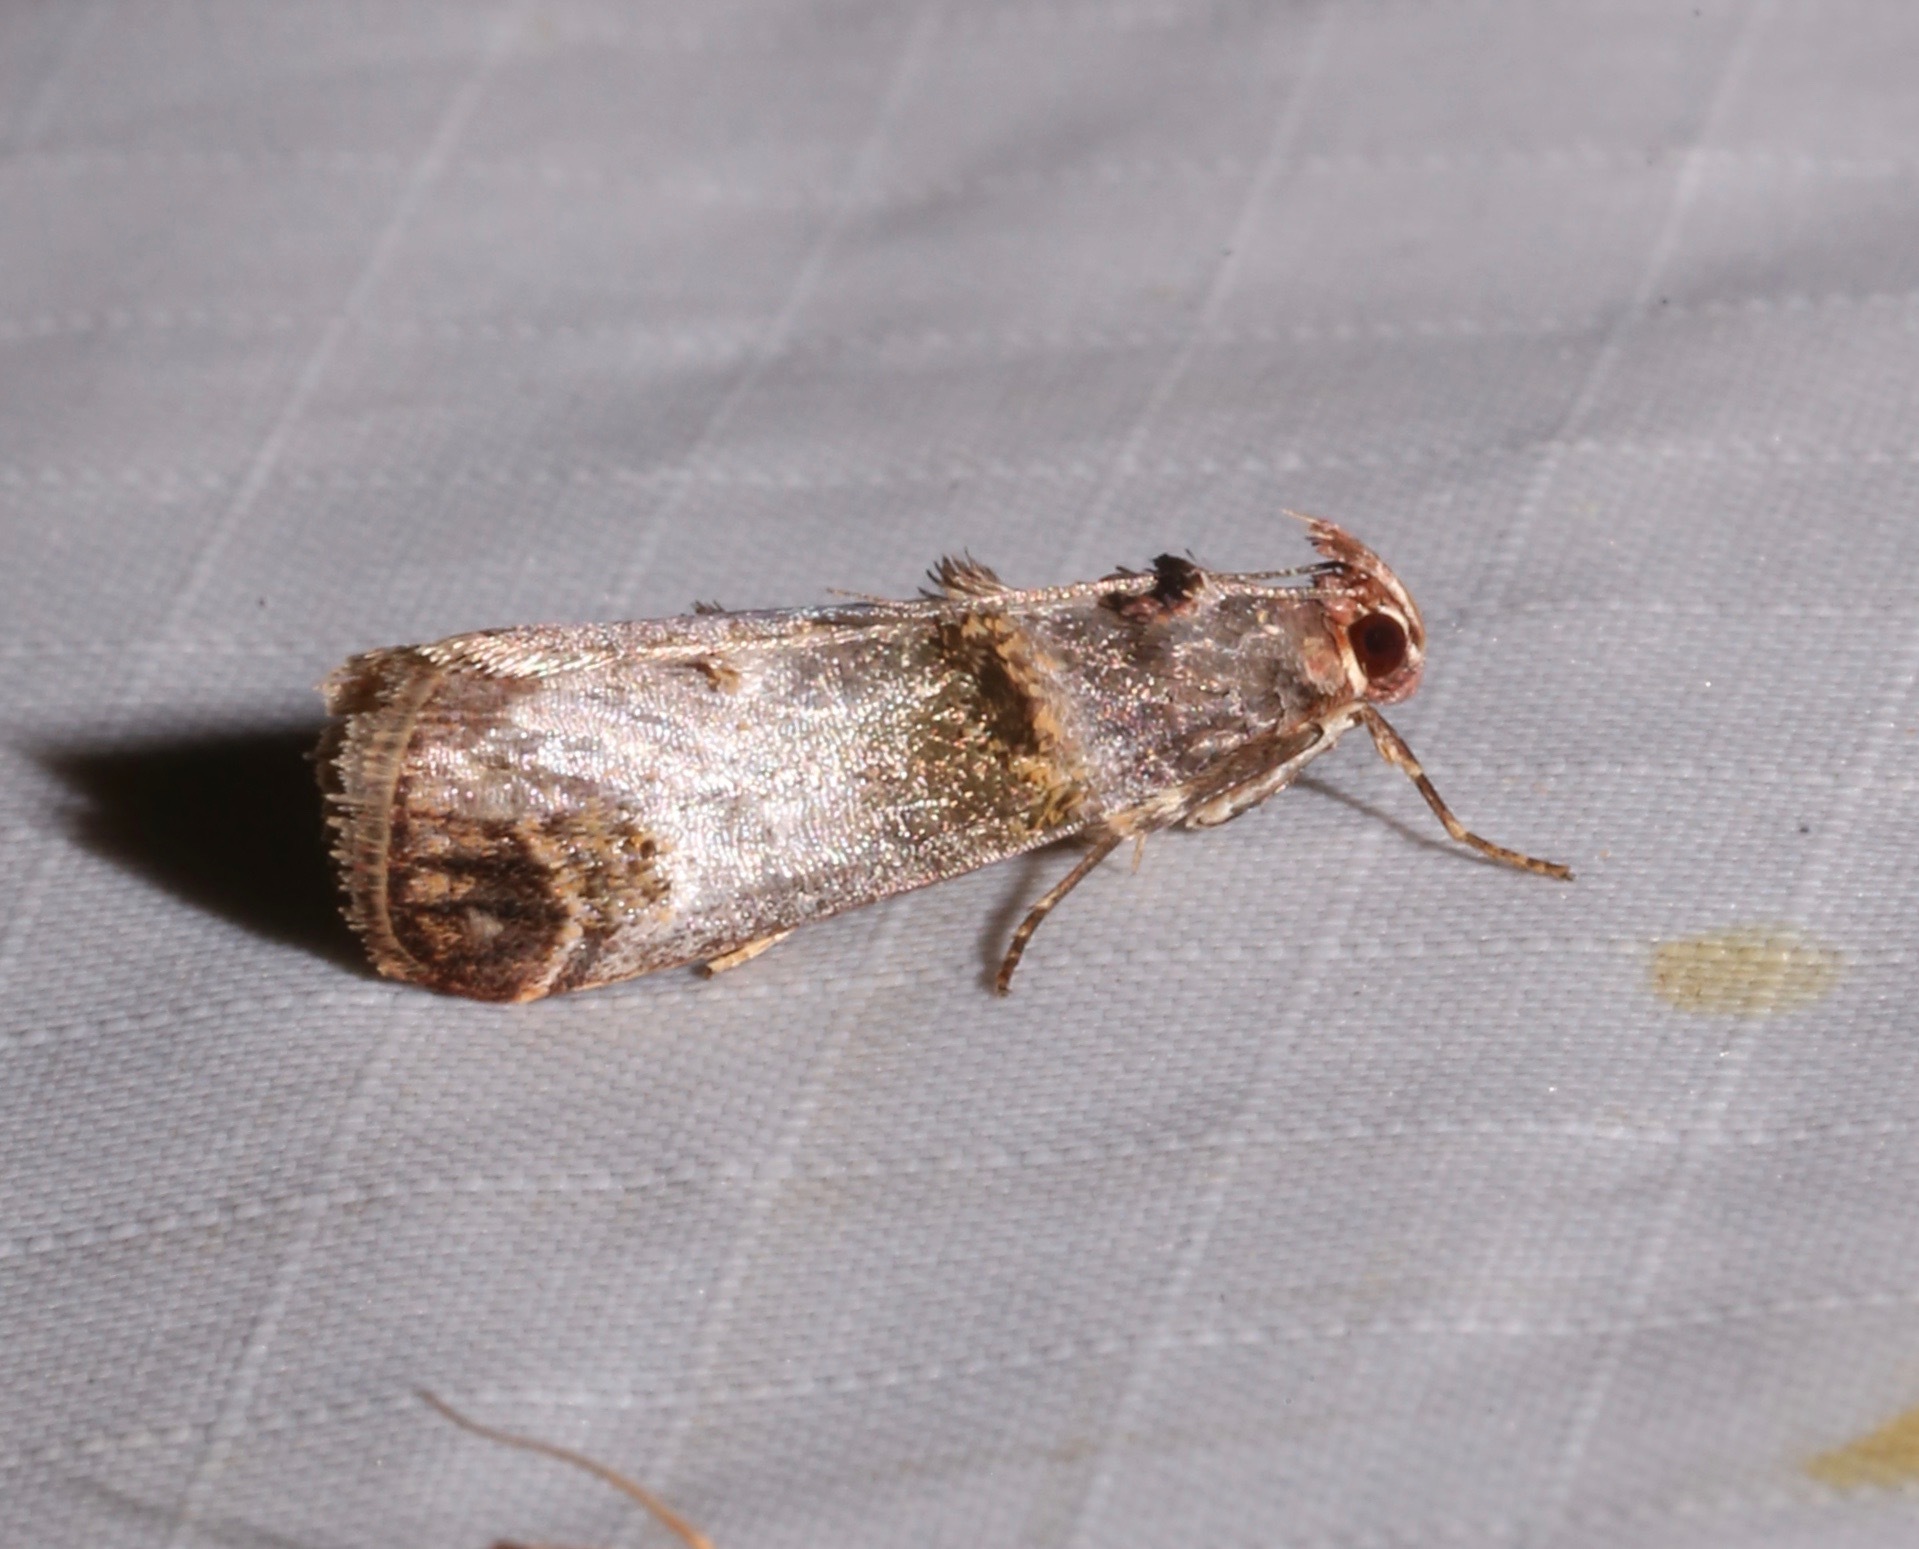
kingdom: Animalia
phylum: Arthropoda
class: Insecta
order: Lepidoptera
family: Pyralidae
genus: Oneida
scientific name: Oneida lunulalis
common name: Orange-tufted oneida moth
